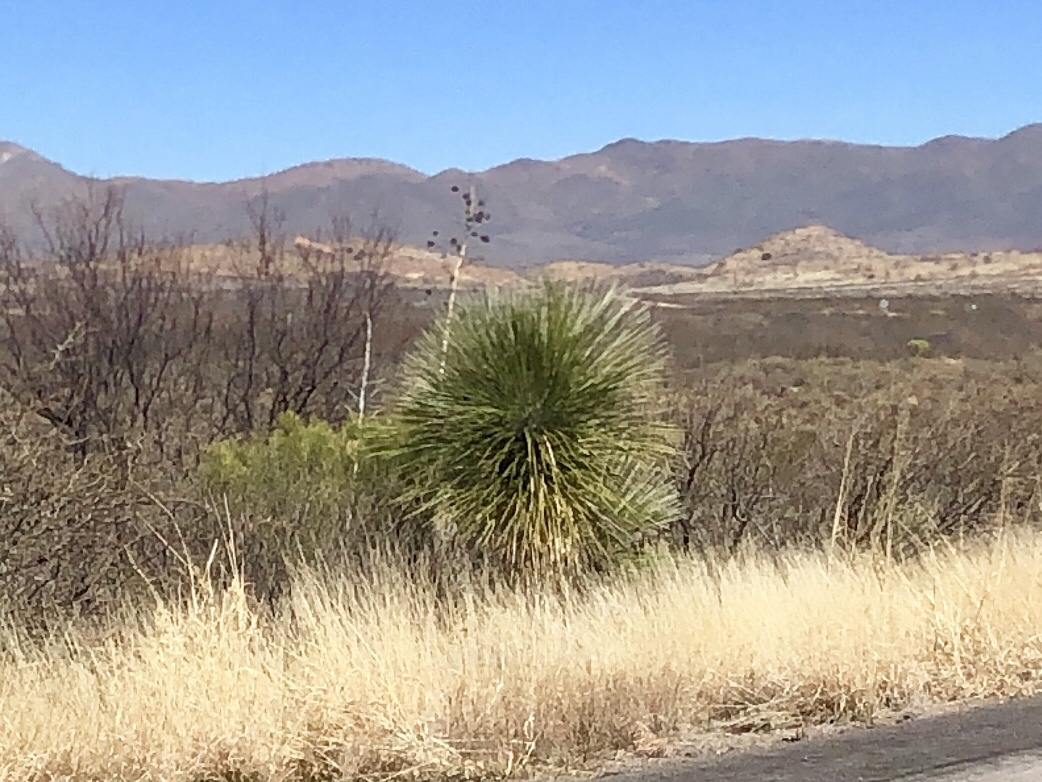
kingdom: Plantae
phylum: Tracheophyta
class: Liliopsida
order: Asparagales
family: Asparagaceae
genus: Yucca
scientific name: Yucca elata
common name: Palmella
